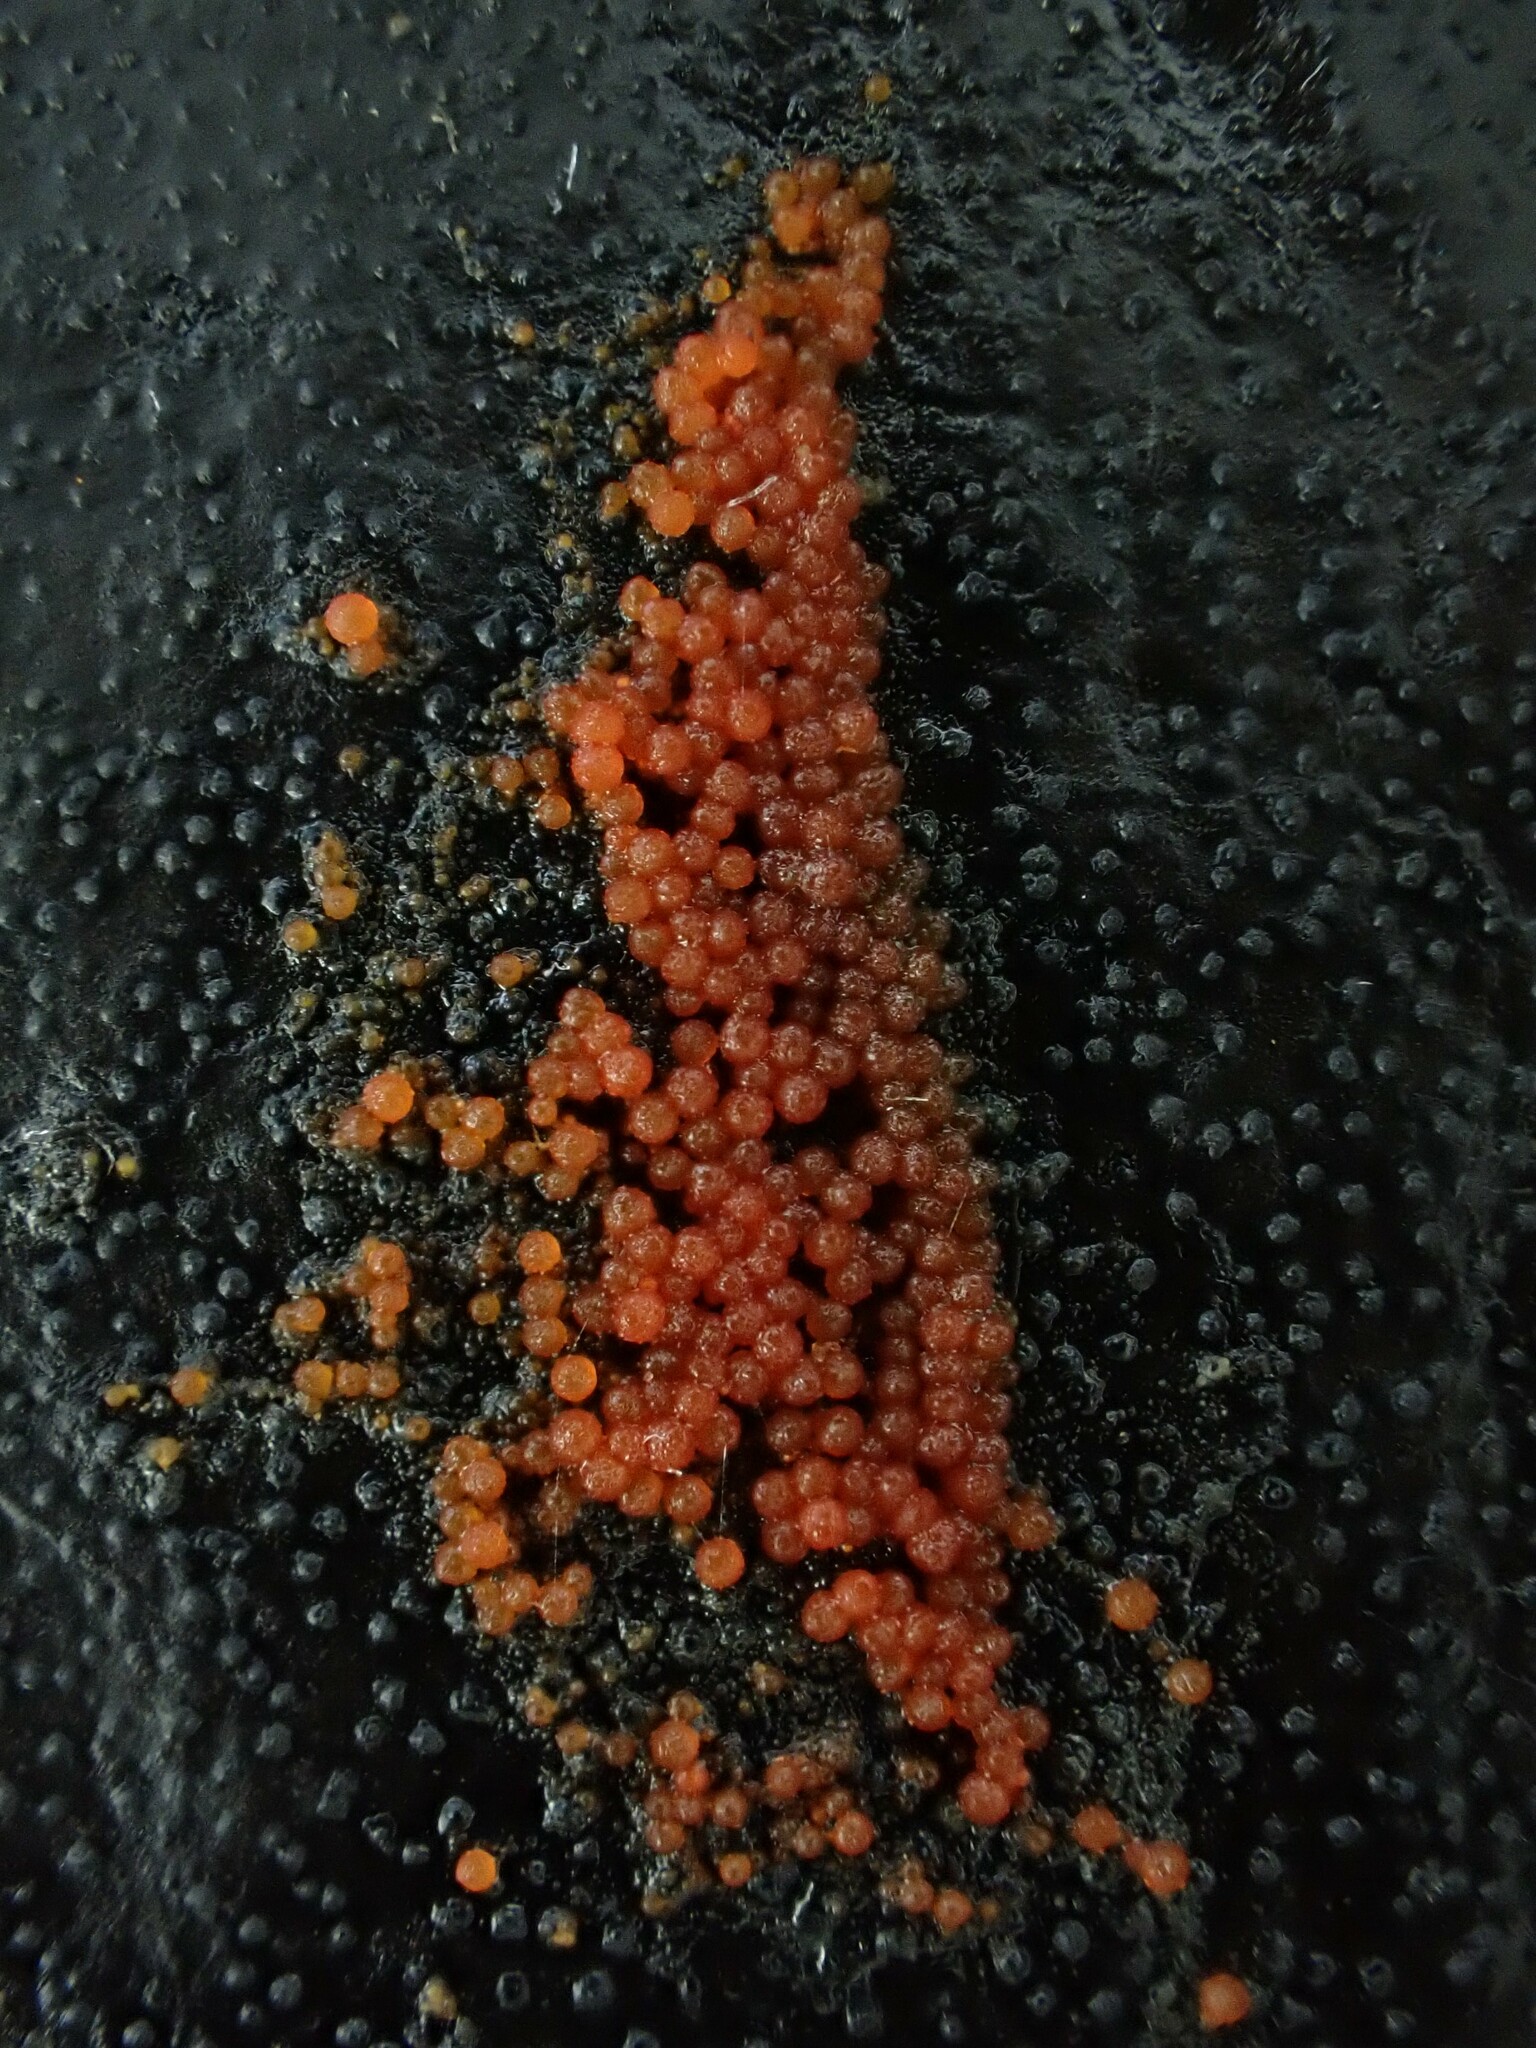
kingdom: Fungi
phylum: Ascomycota
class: Sordariomycetes
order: Hypocreales
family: Nectriaceae
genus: Dialonectria
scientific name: Dialonectria sanguinea
